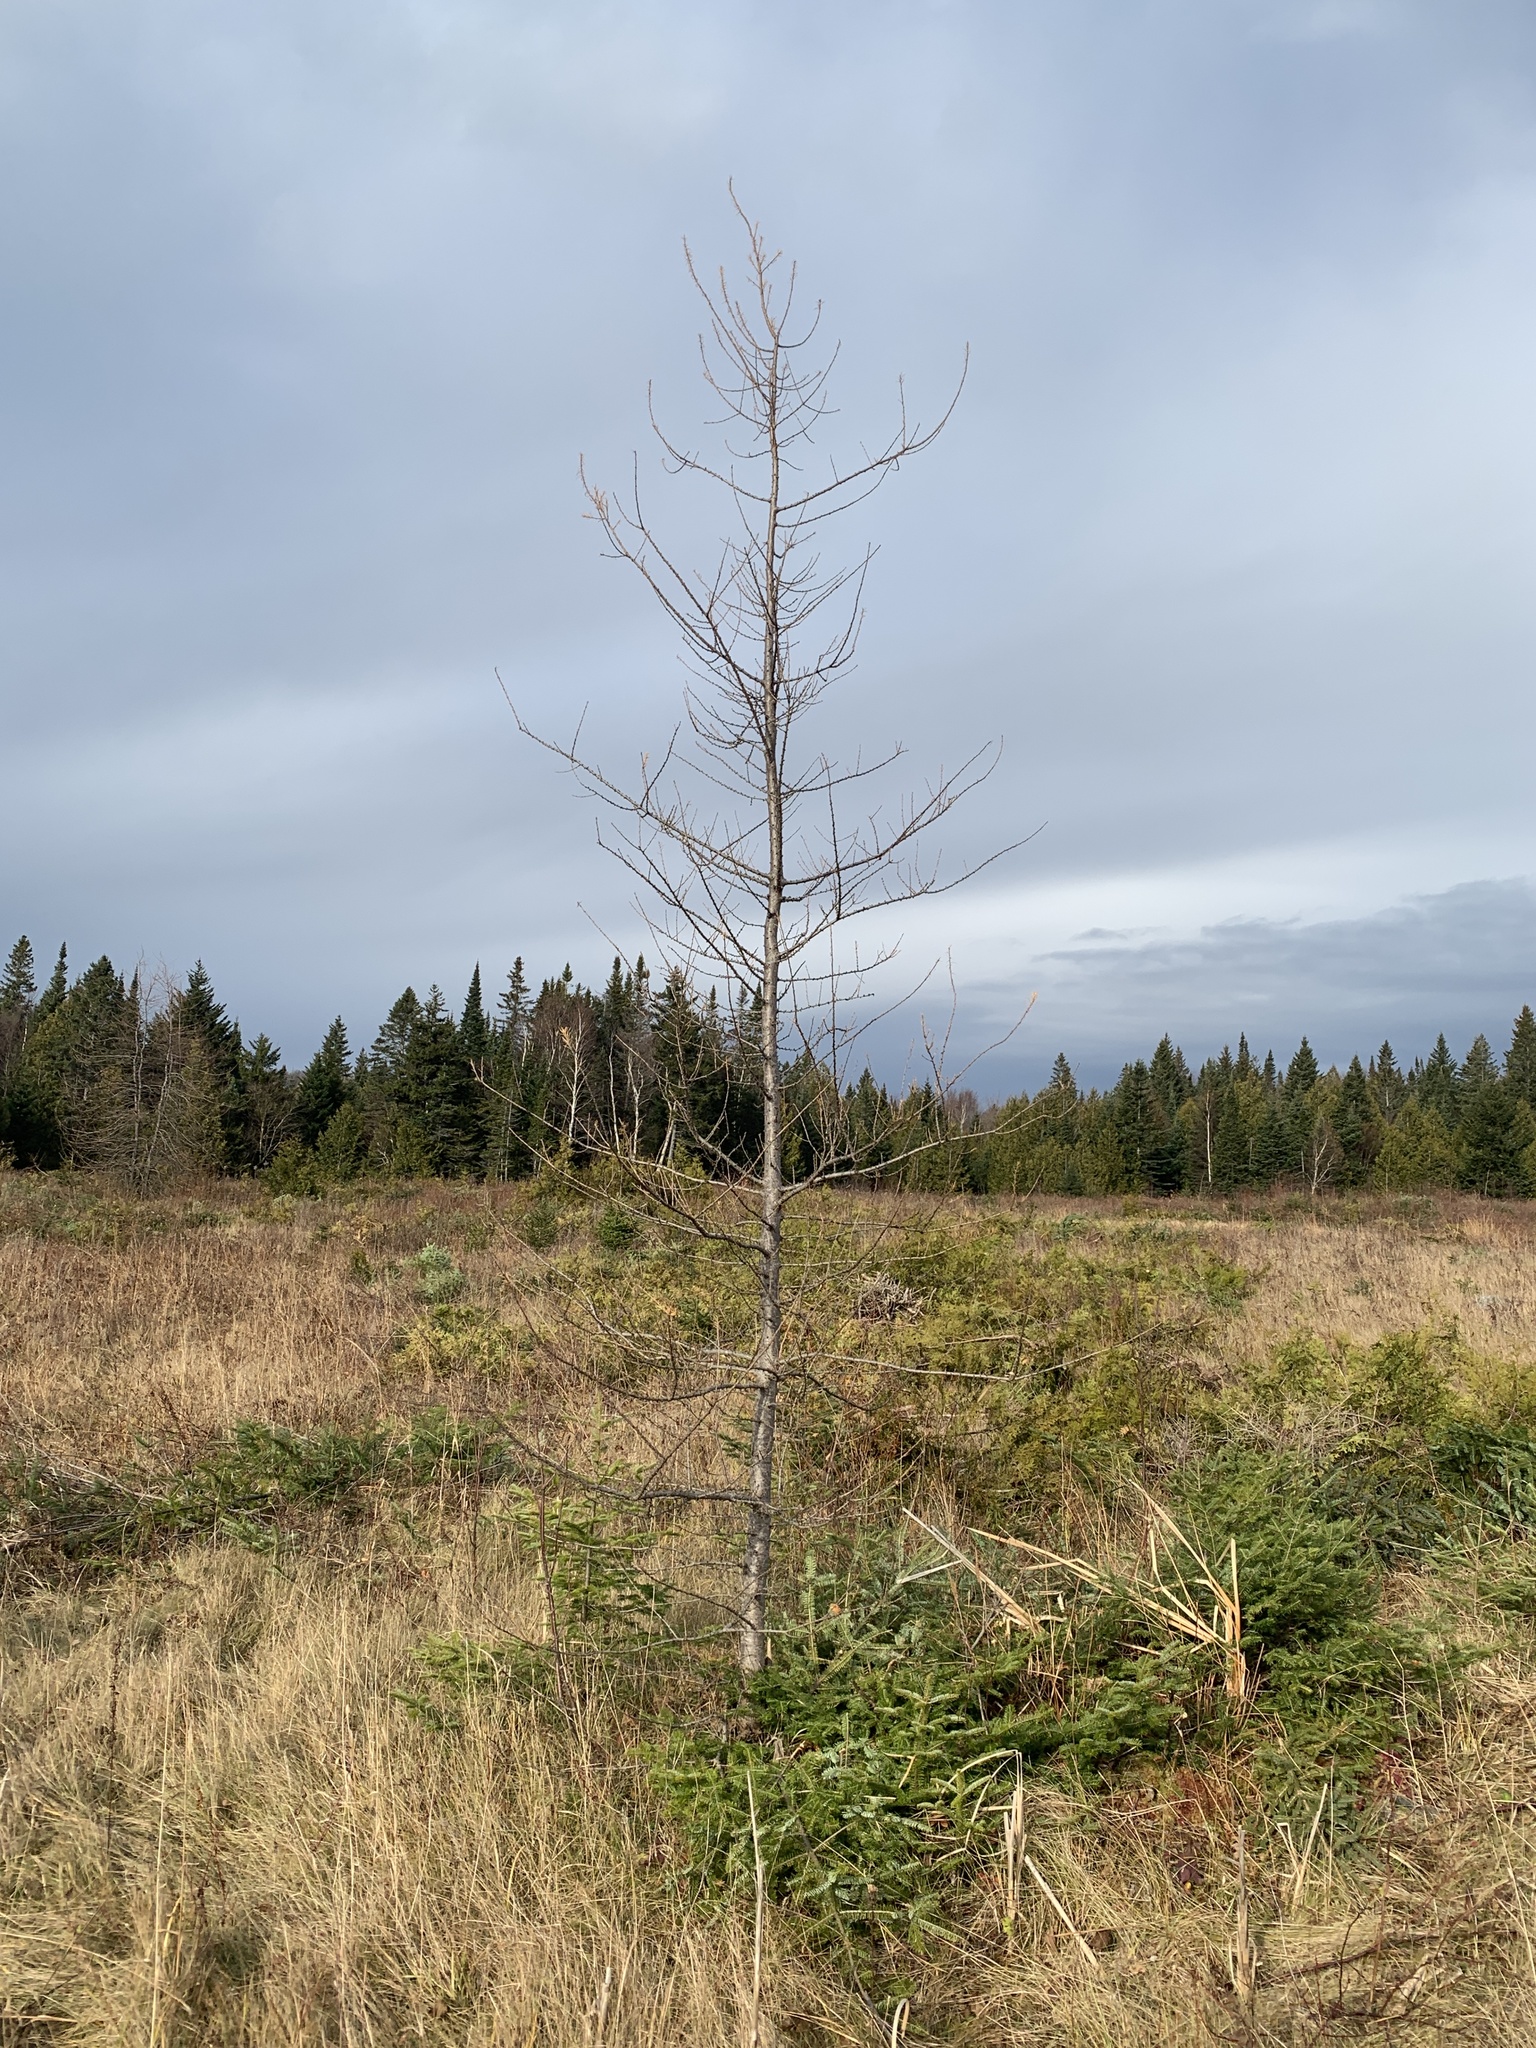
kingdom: Plantae
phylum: Tracheophyta
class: Pinopsida
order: Pinales
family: Pinaceae
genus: Larix
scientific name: Larix laricina
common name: American larch
